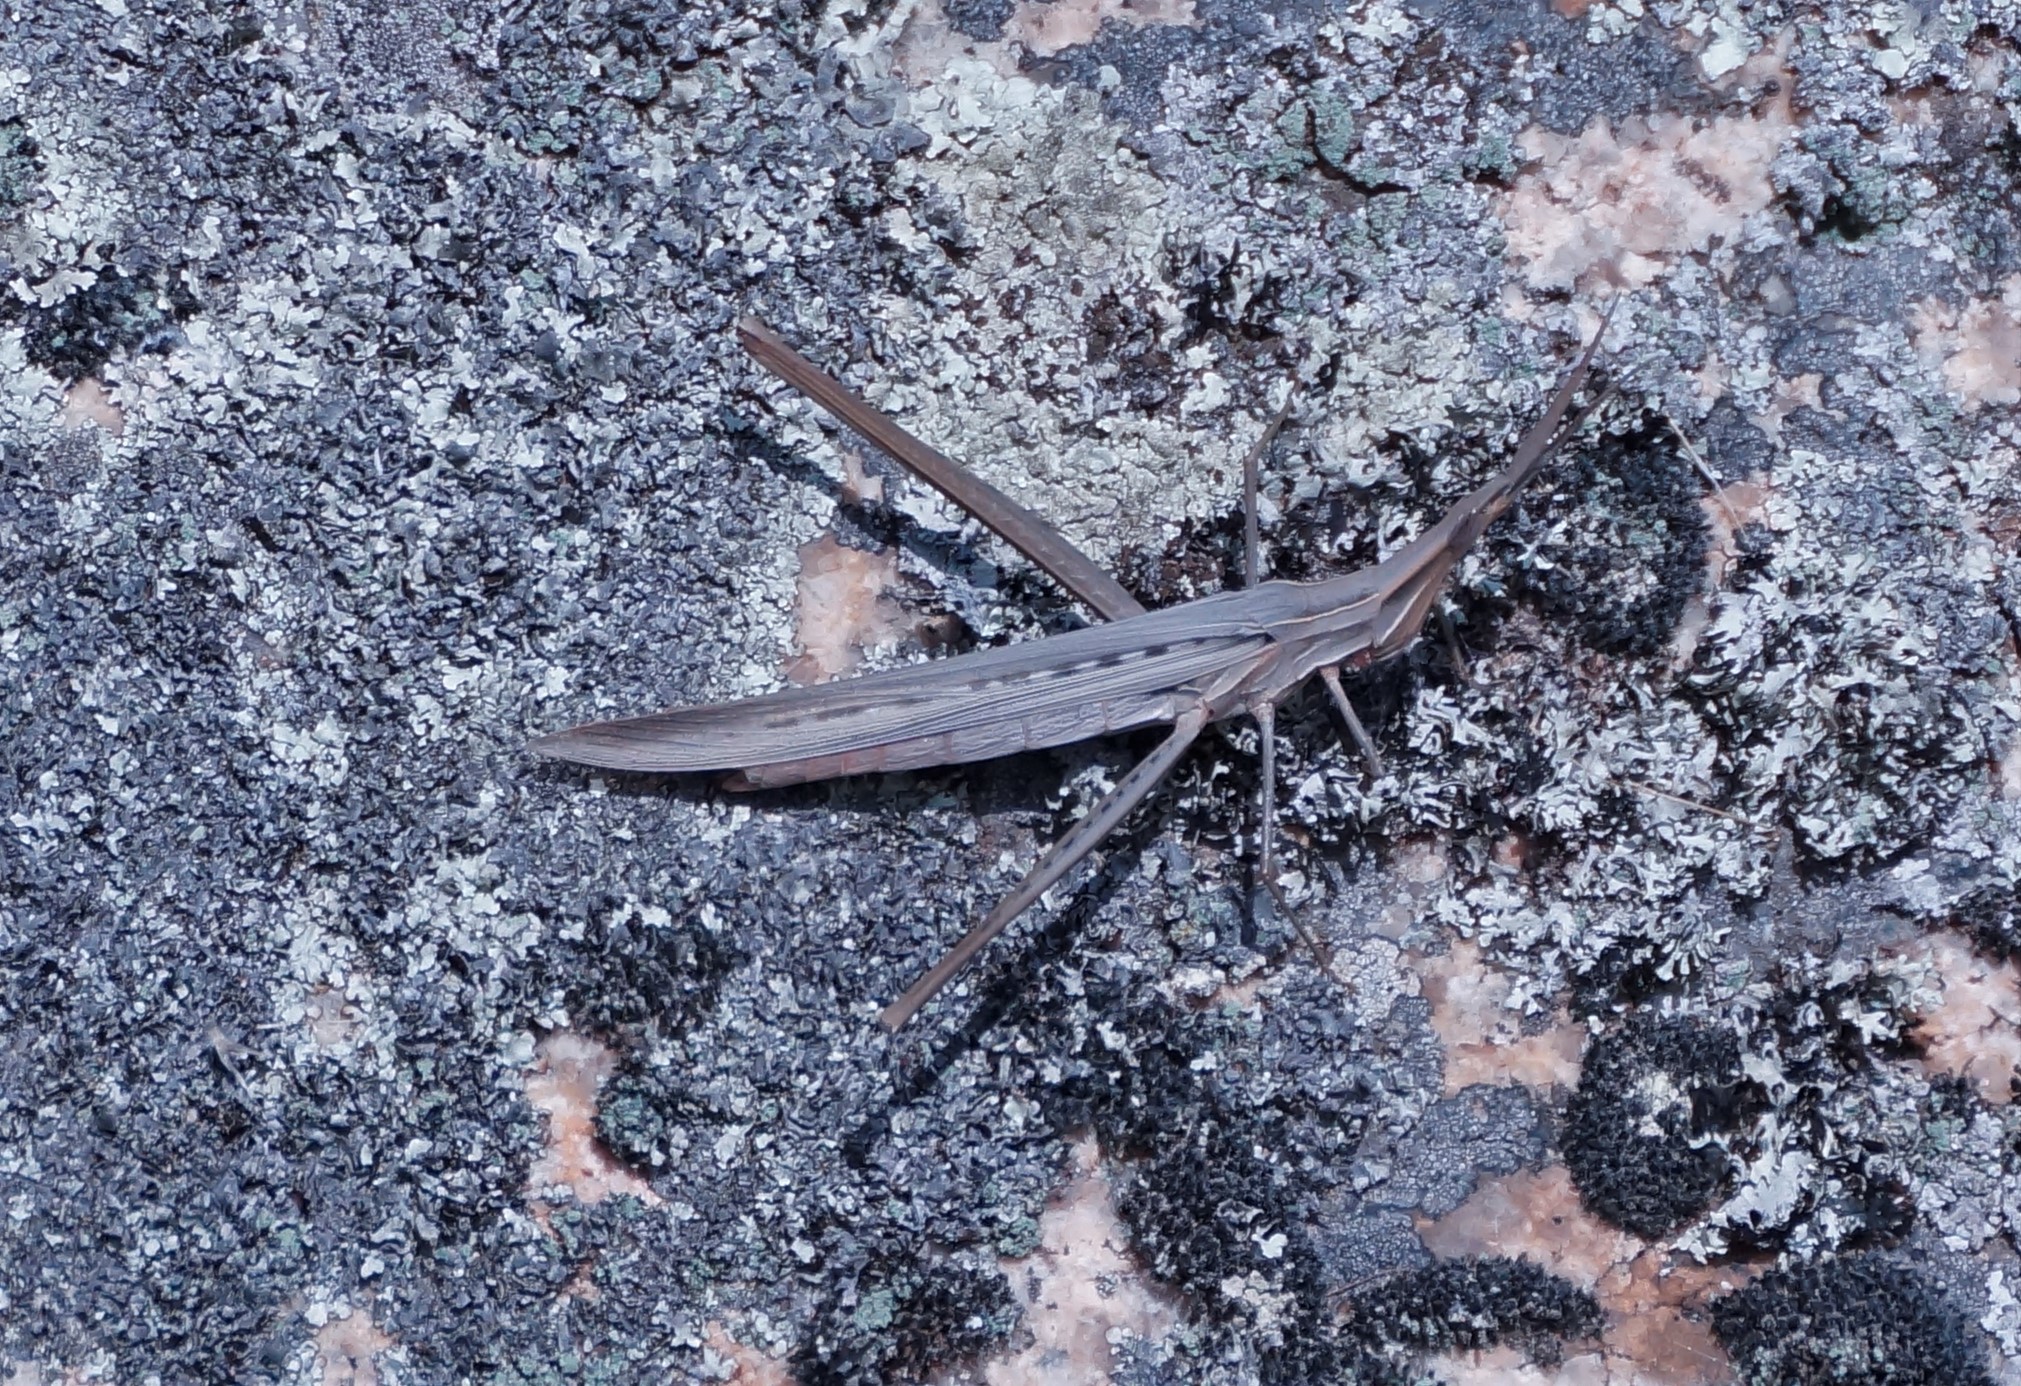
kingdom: Animalia
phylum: Arthropoda
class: Insecta
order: Orthoptera
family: Acrididae
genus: Acrida
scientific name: Acrida conica
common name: Giant green slantface
